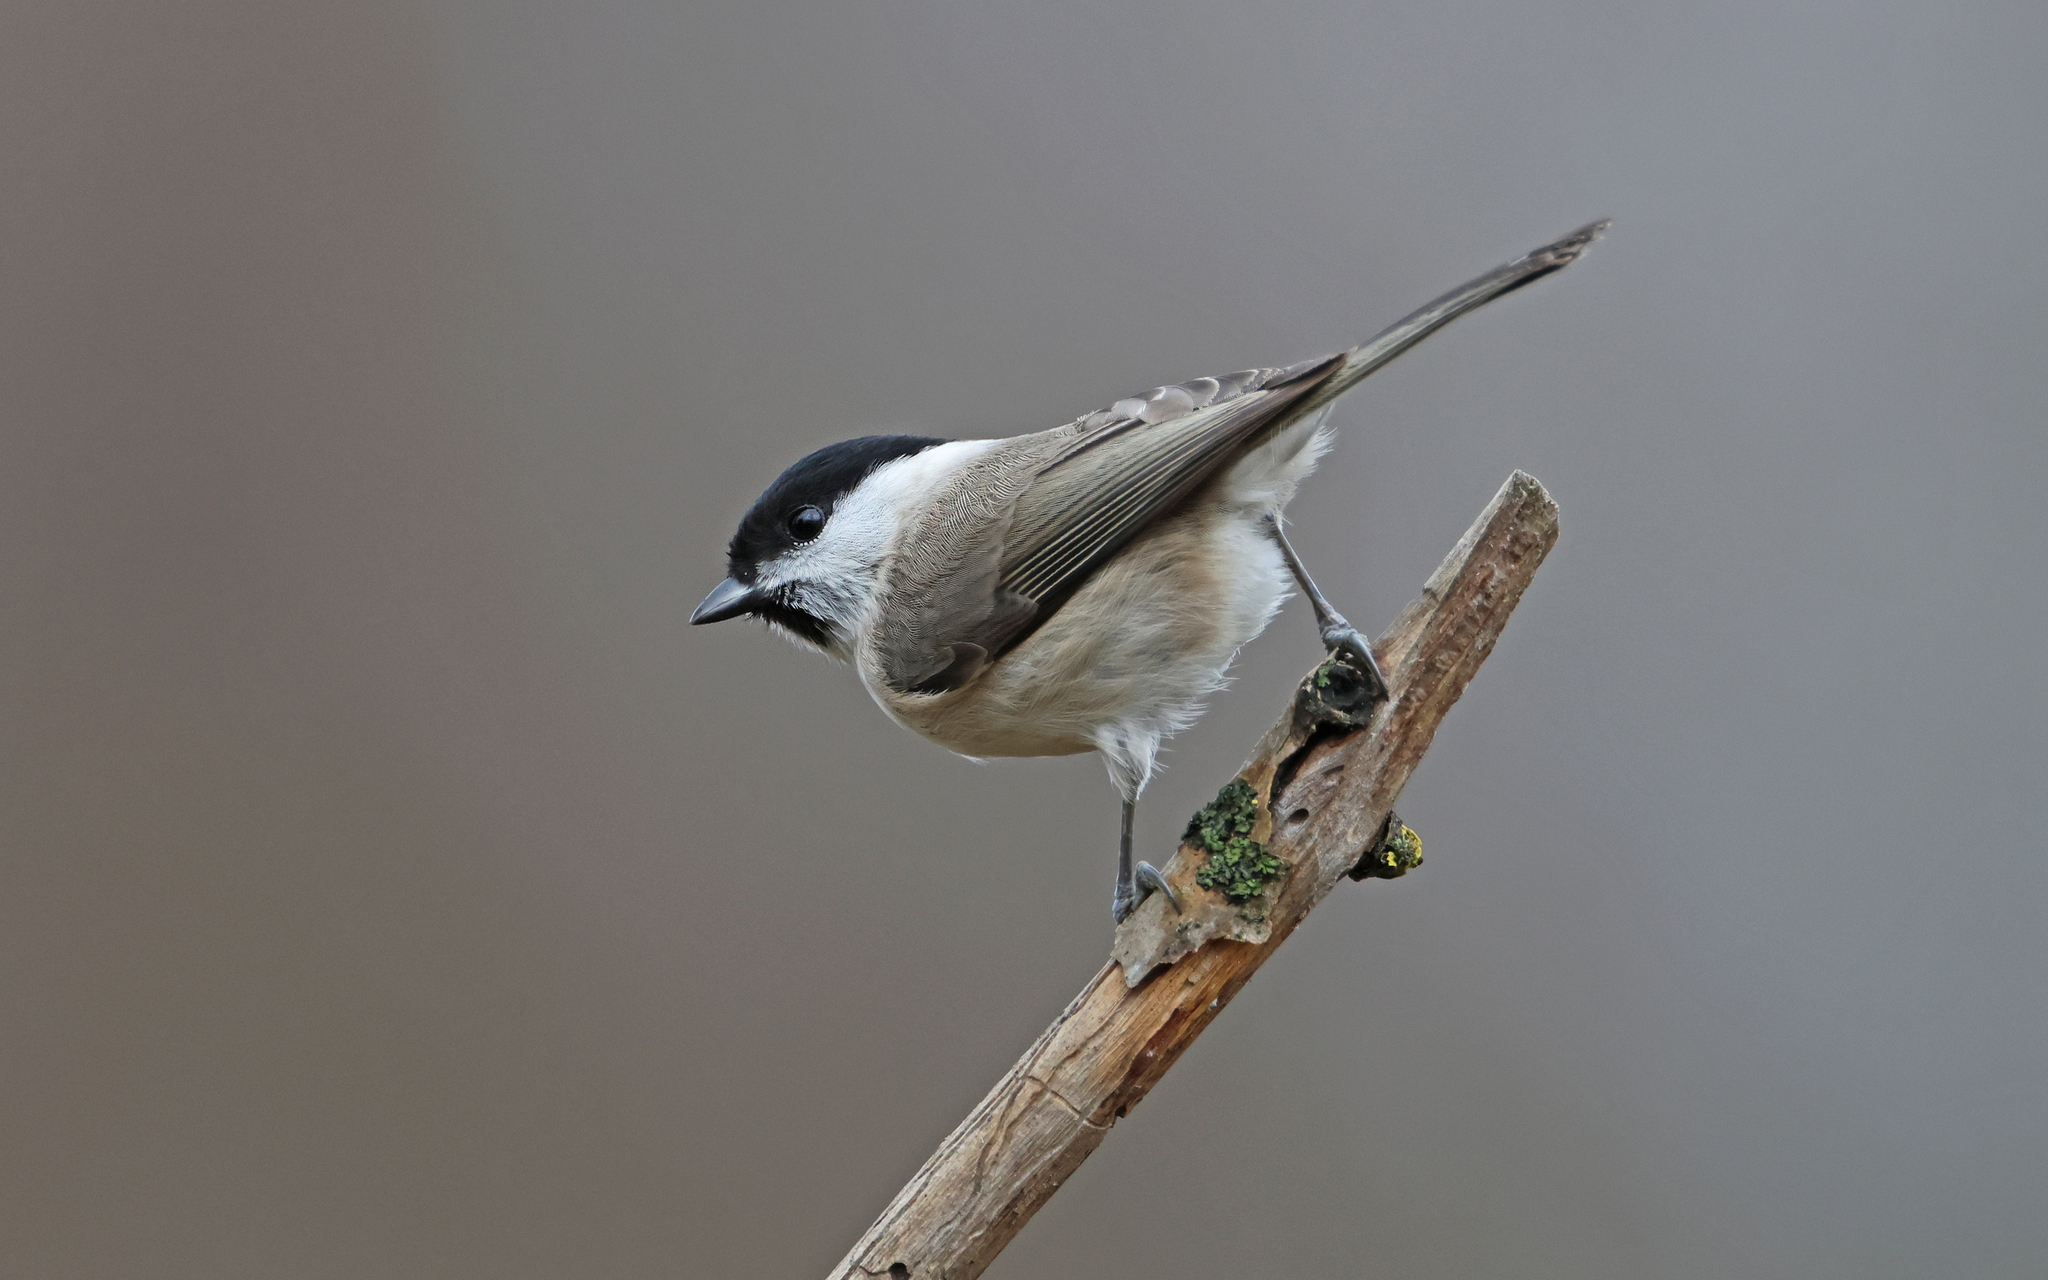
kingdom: Animalia
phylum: Chordata
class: Aves
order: Passeriformes
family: Paridae
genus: Poecile
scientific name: Poecile palustris
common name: Marsh tit
